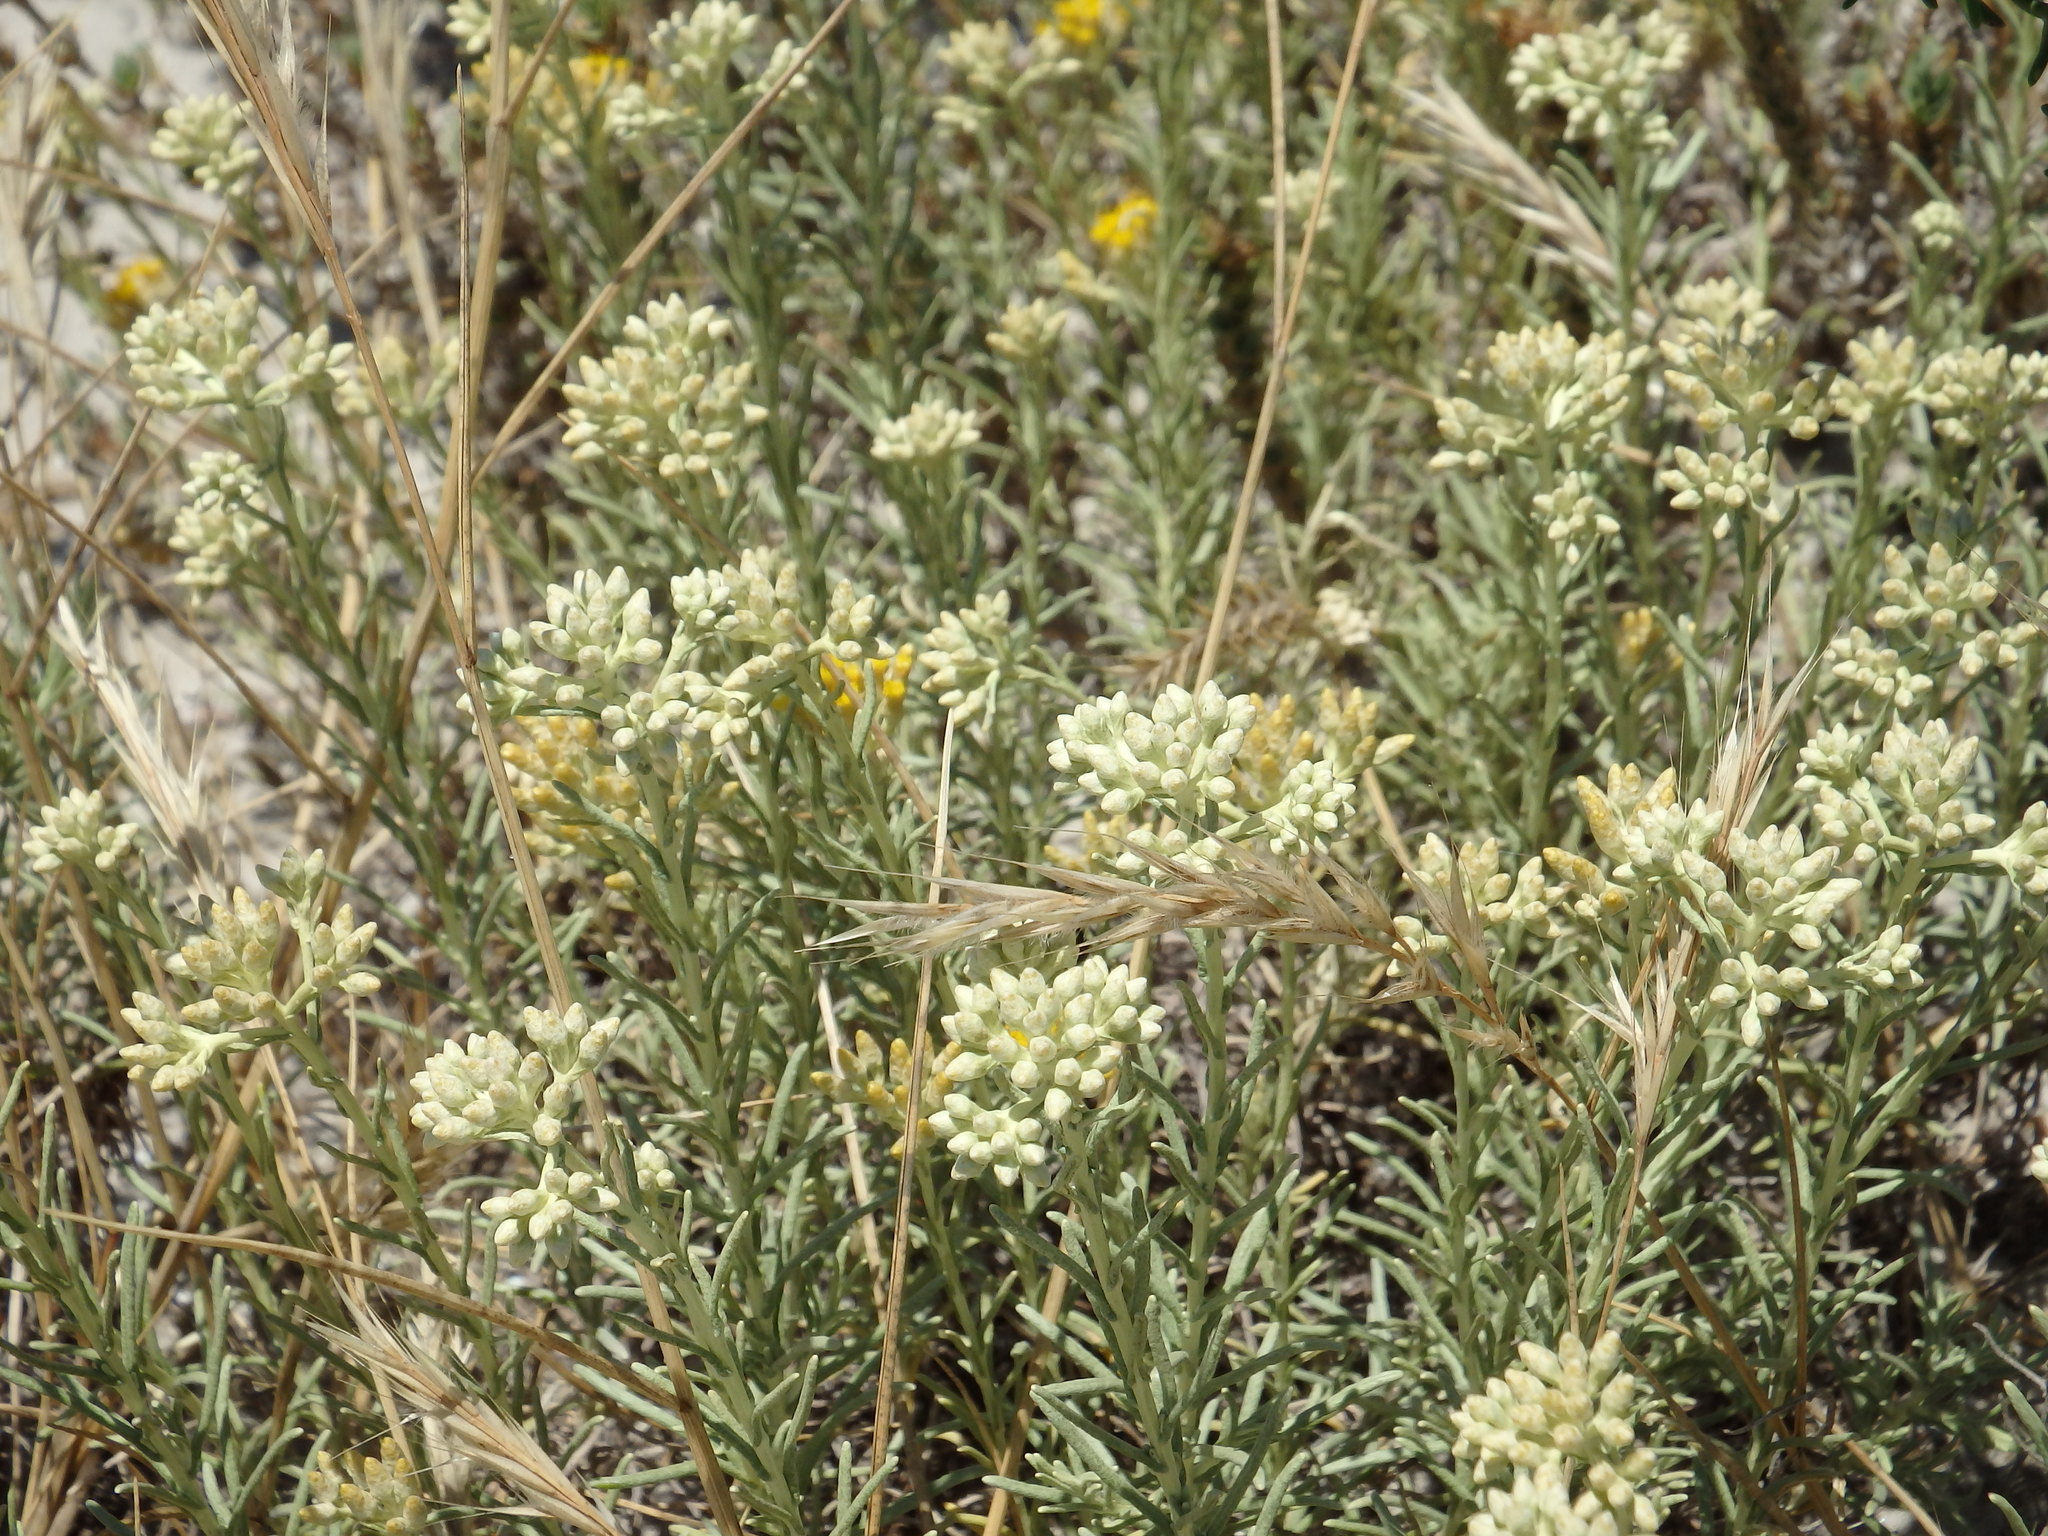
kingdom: Plantae
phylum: Tracheophyta
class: Magnoliopsida
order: Asterales
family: Asteraceae
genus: Helichrysum
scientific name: Helichrysum serotinum
